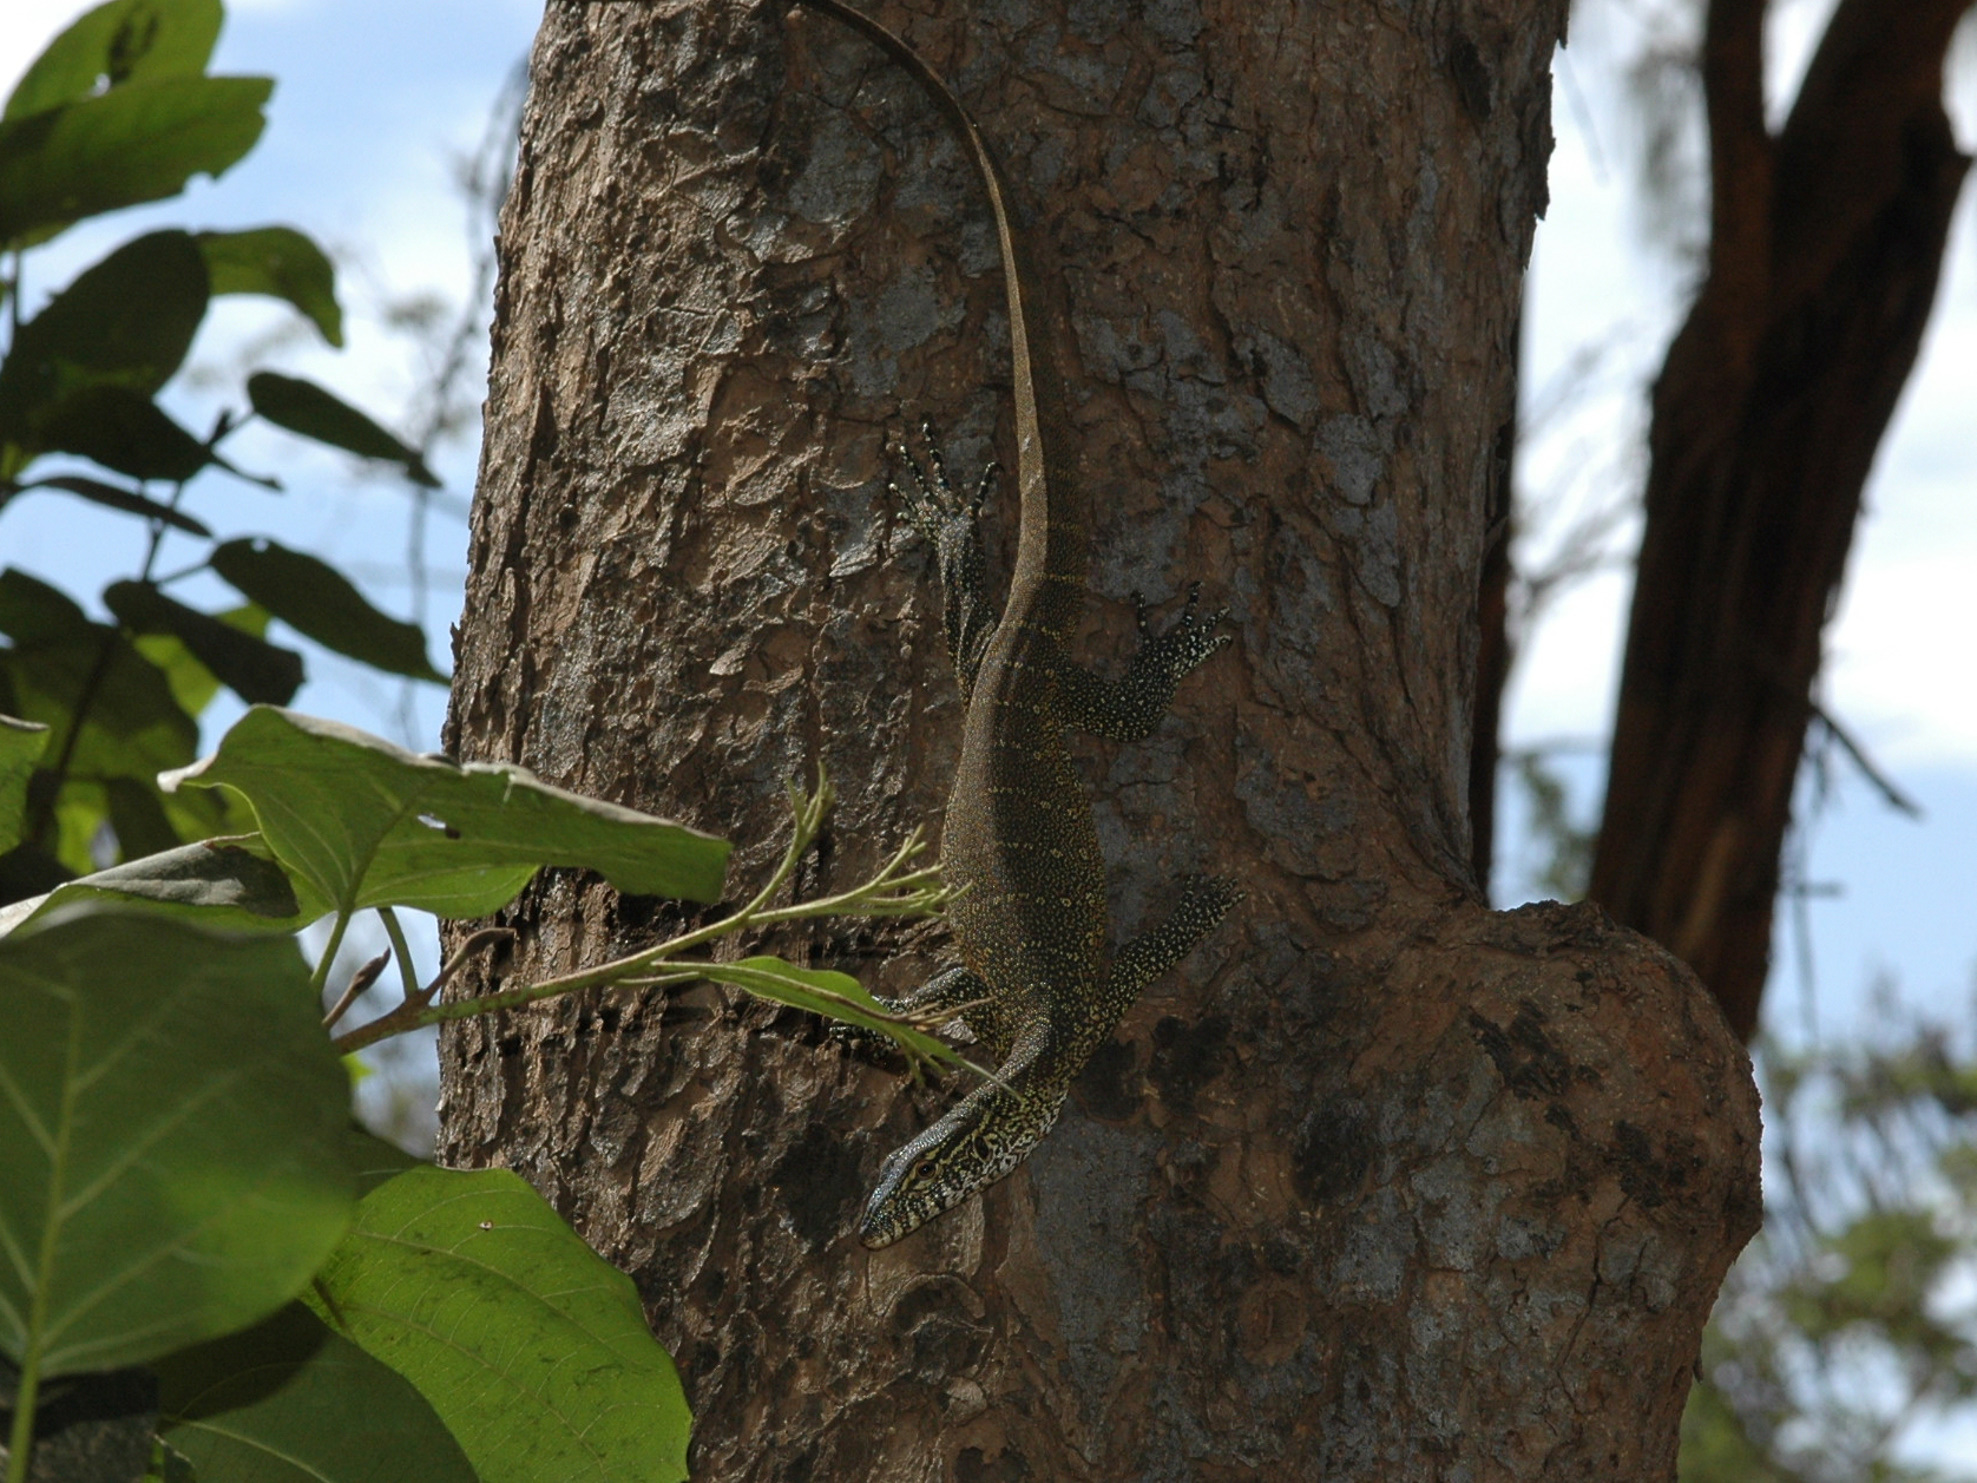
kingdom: Animalia
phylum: Chordata
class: Squamata
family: Varanidae
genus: Varanus
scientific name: Varanus niloticus
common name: Nile monitor
